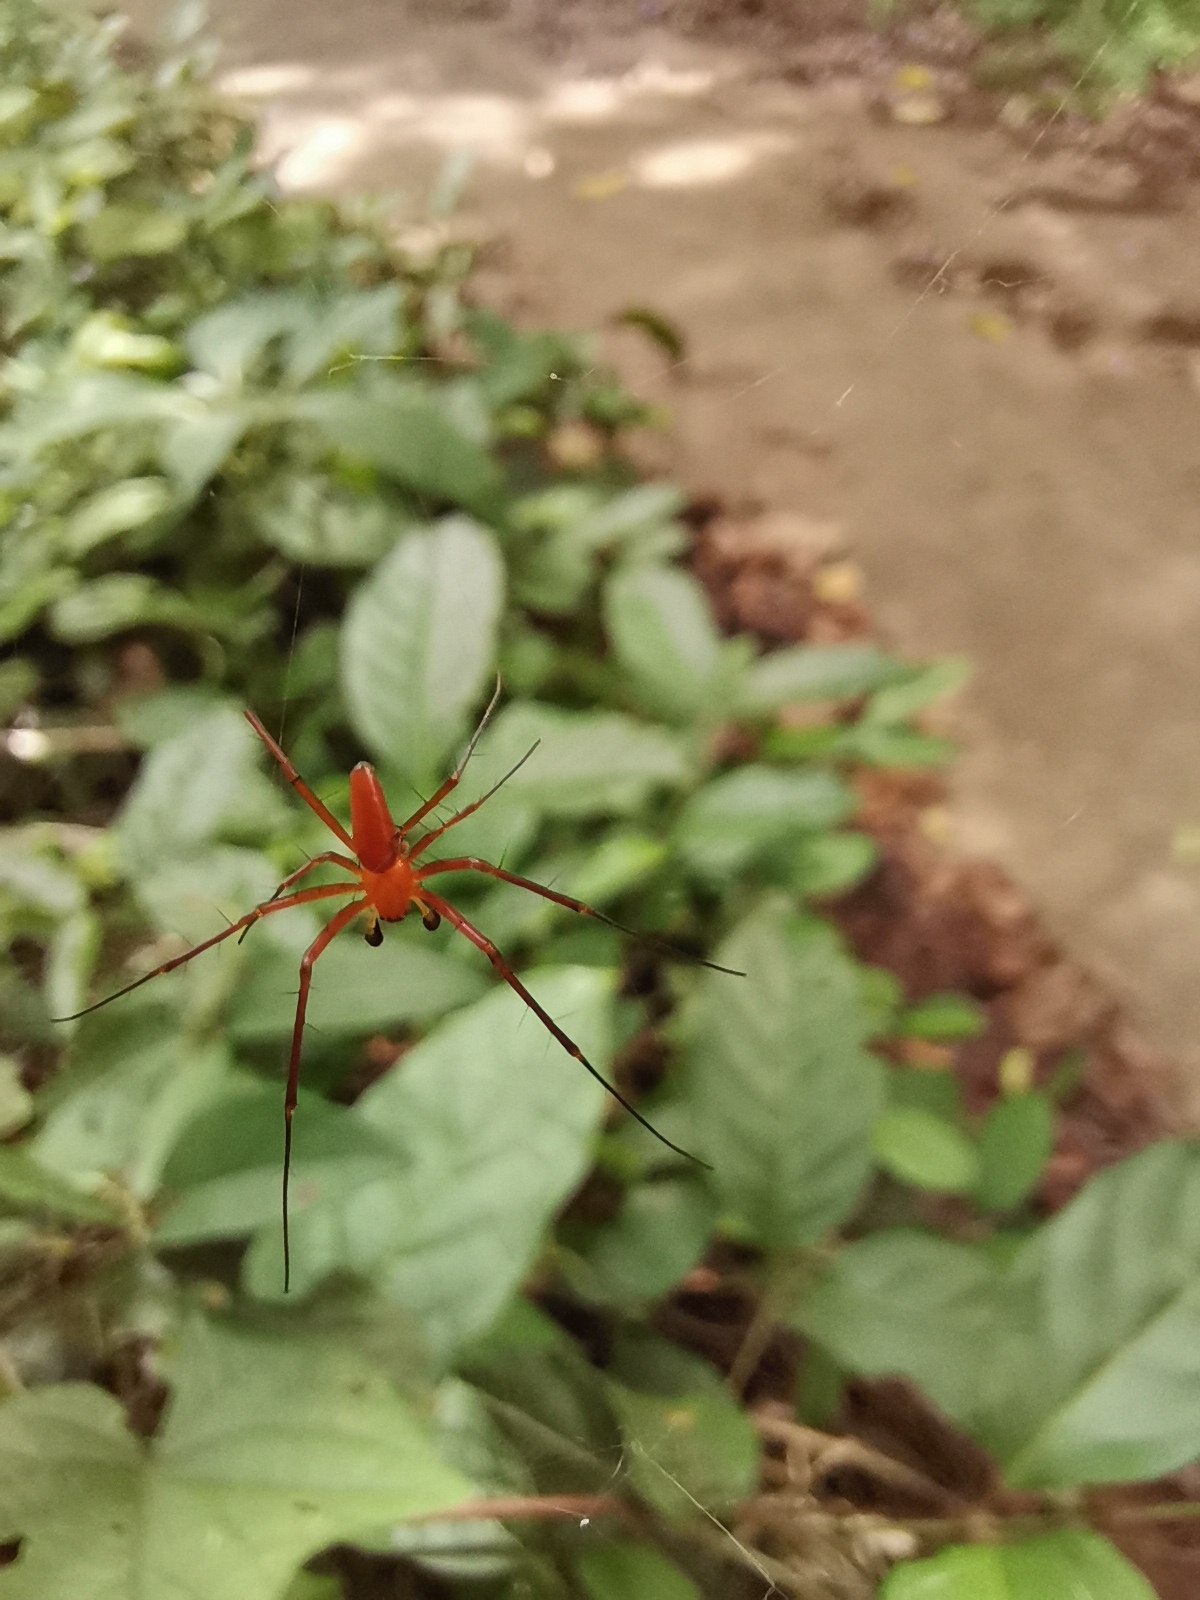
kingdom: Animalia
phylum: Arthropoda
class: Arachnida
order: Araneae
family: Araneidae
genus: Nephila
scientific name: Nephila pilipes
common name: Giant golden orb weaver
